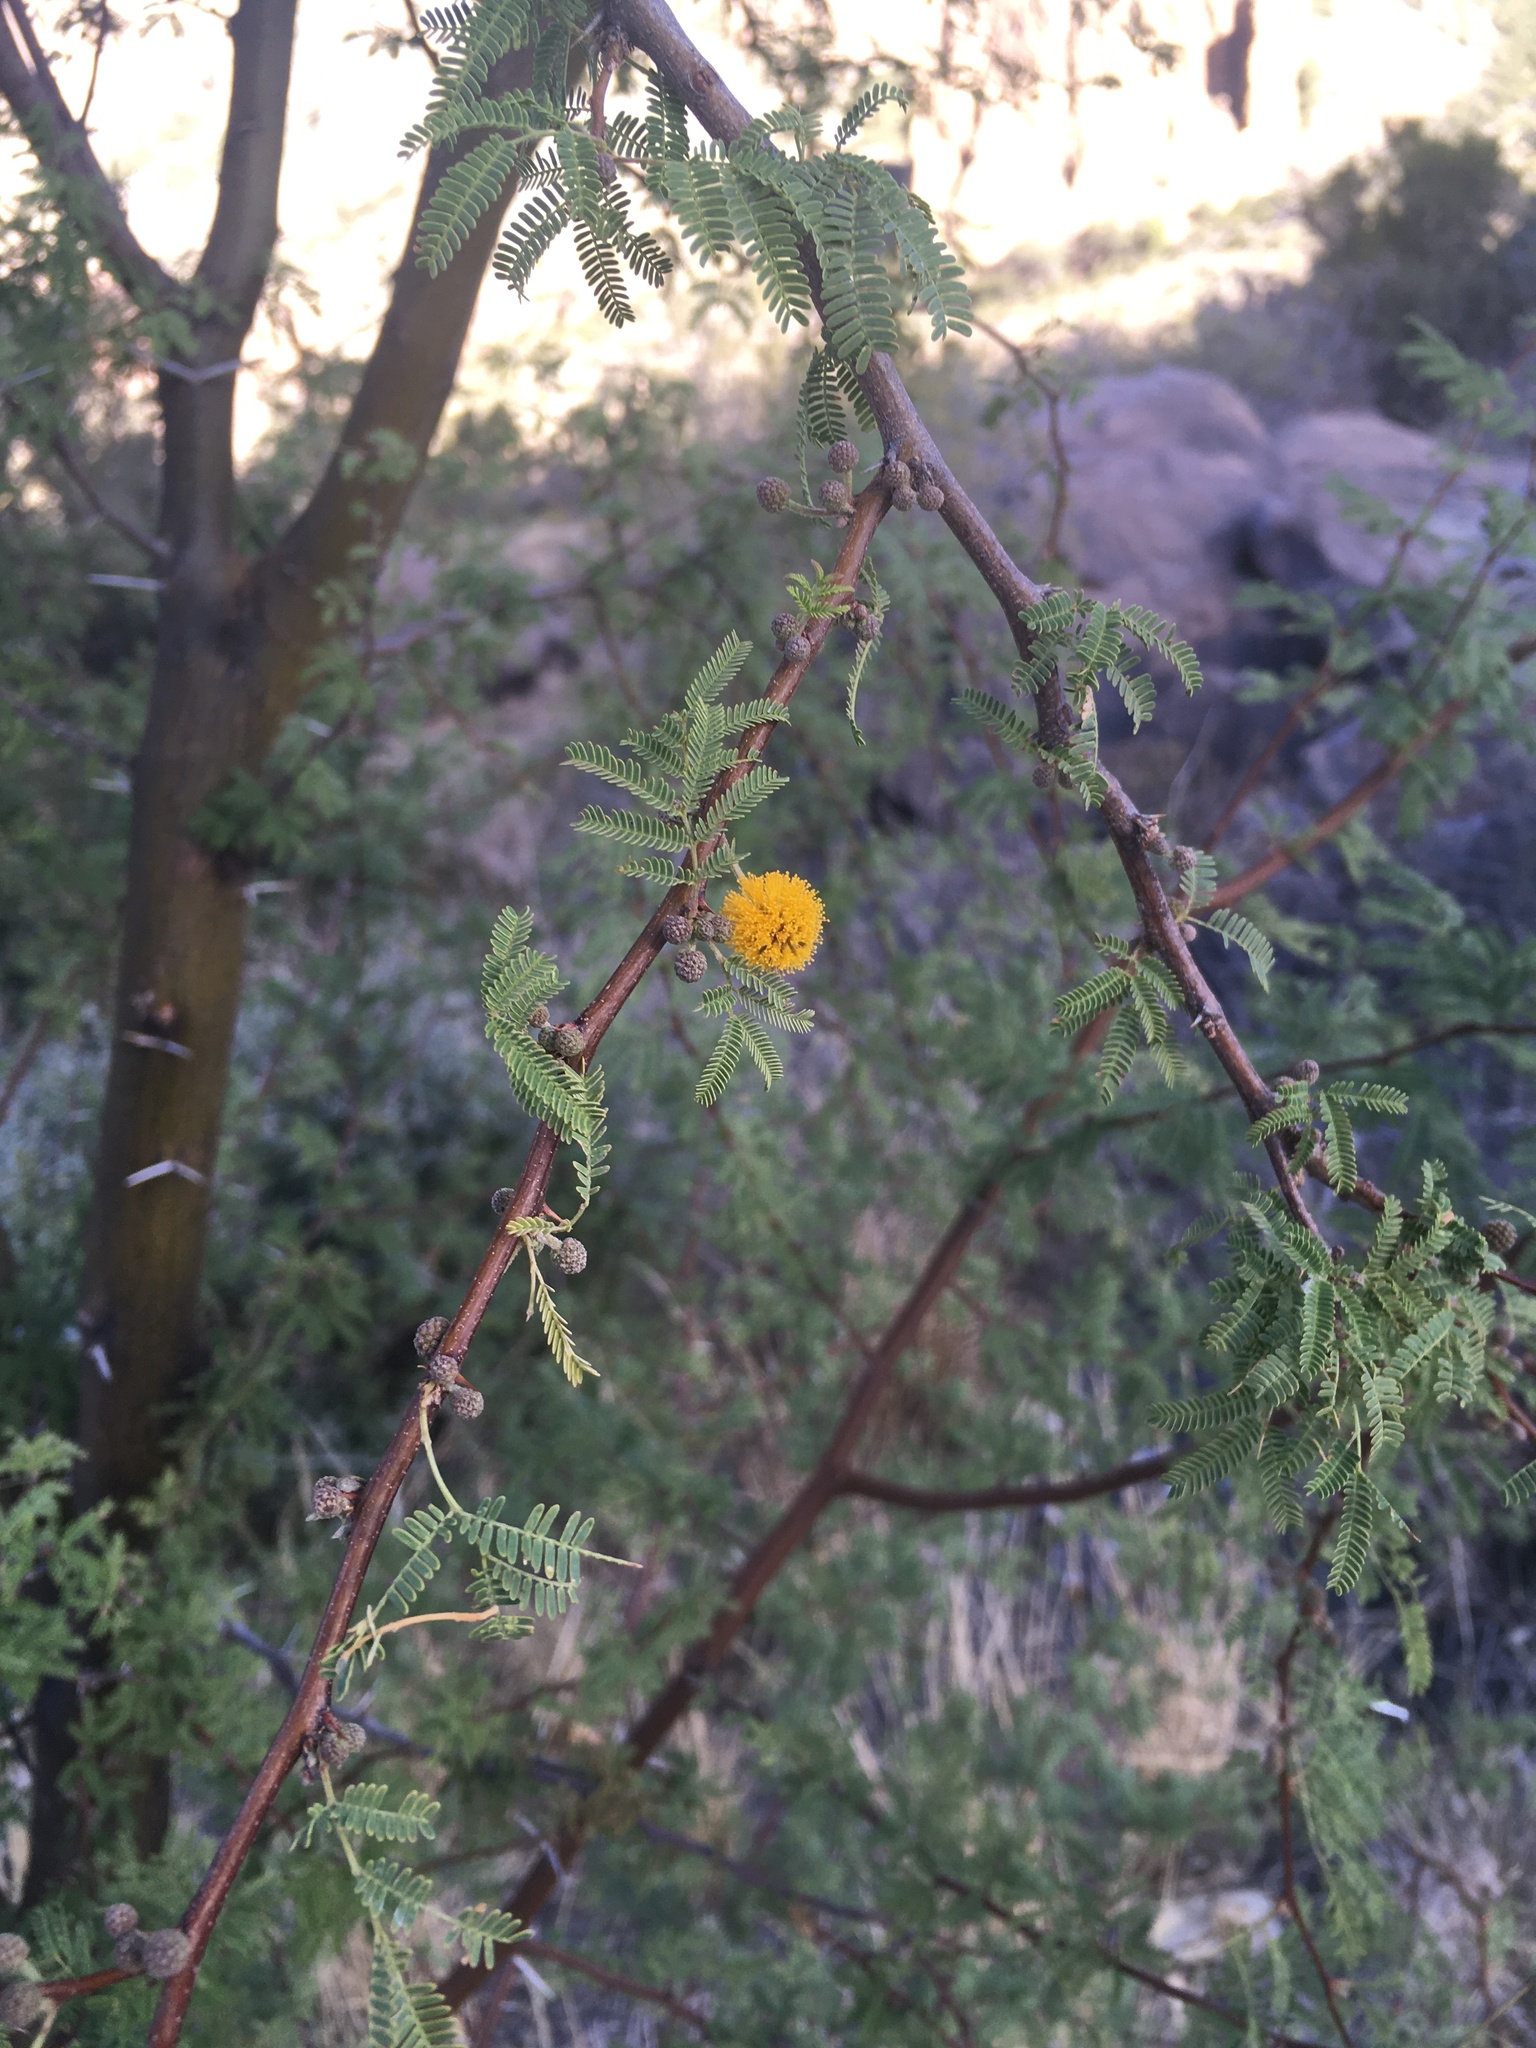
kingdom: Plantae
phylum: Tracheophyta
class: Magnoliopsida
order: Fabales
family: Fabaceae
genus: Vachellia
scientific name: Vachellia farnesiana
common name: Sweet acacia
